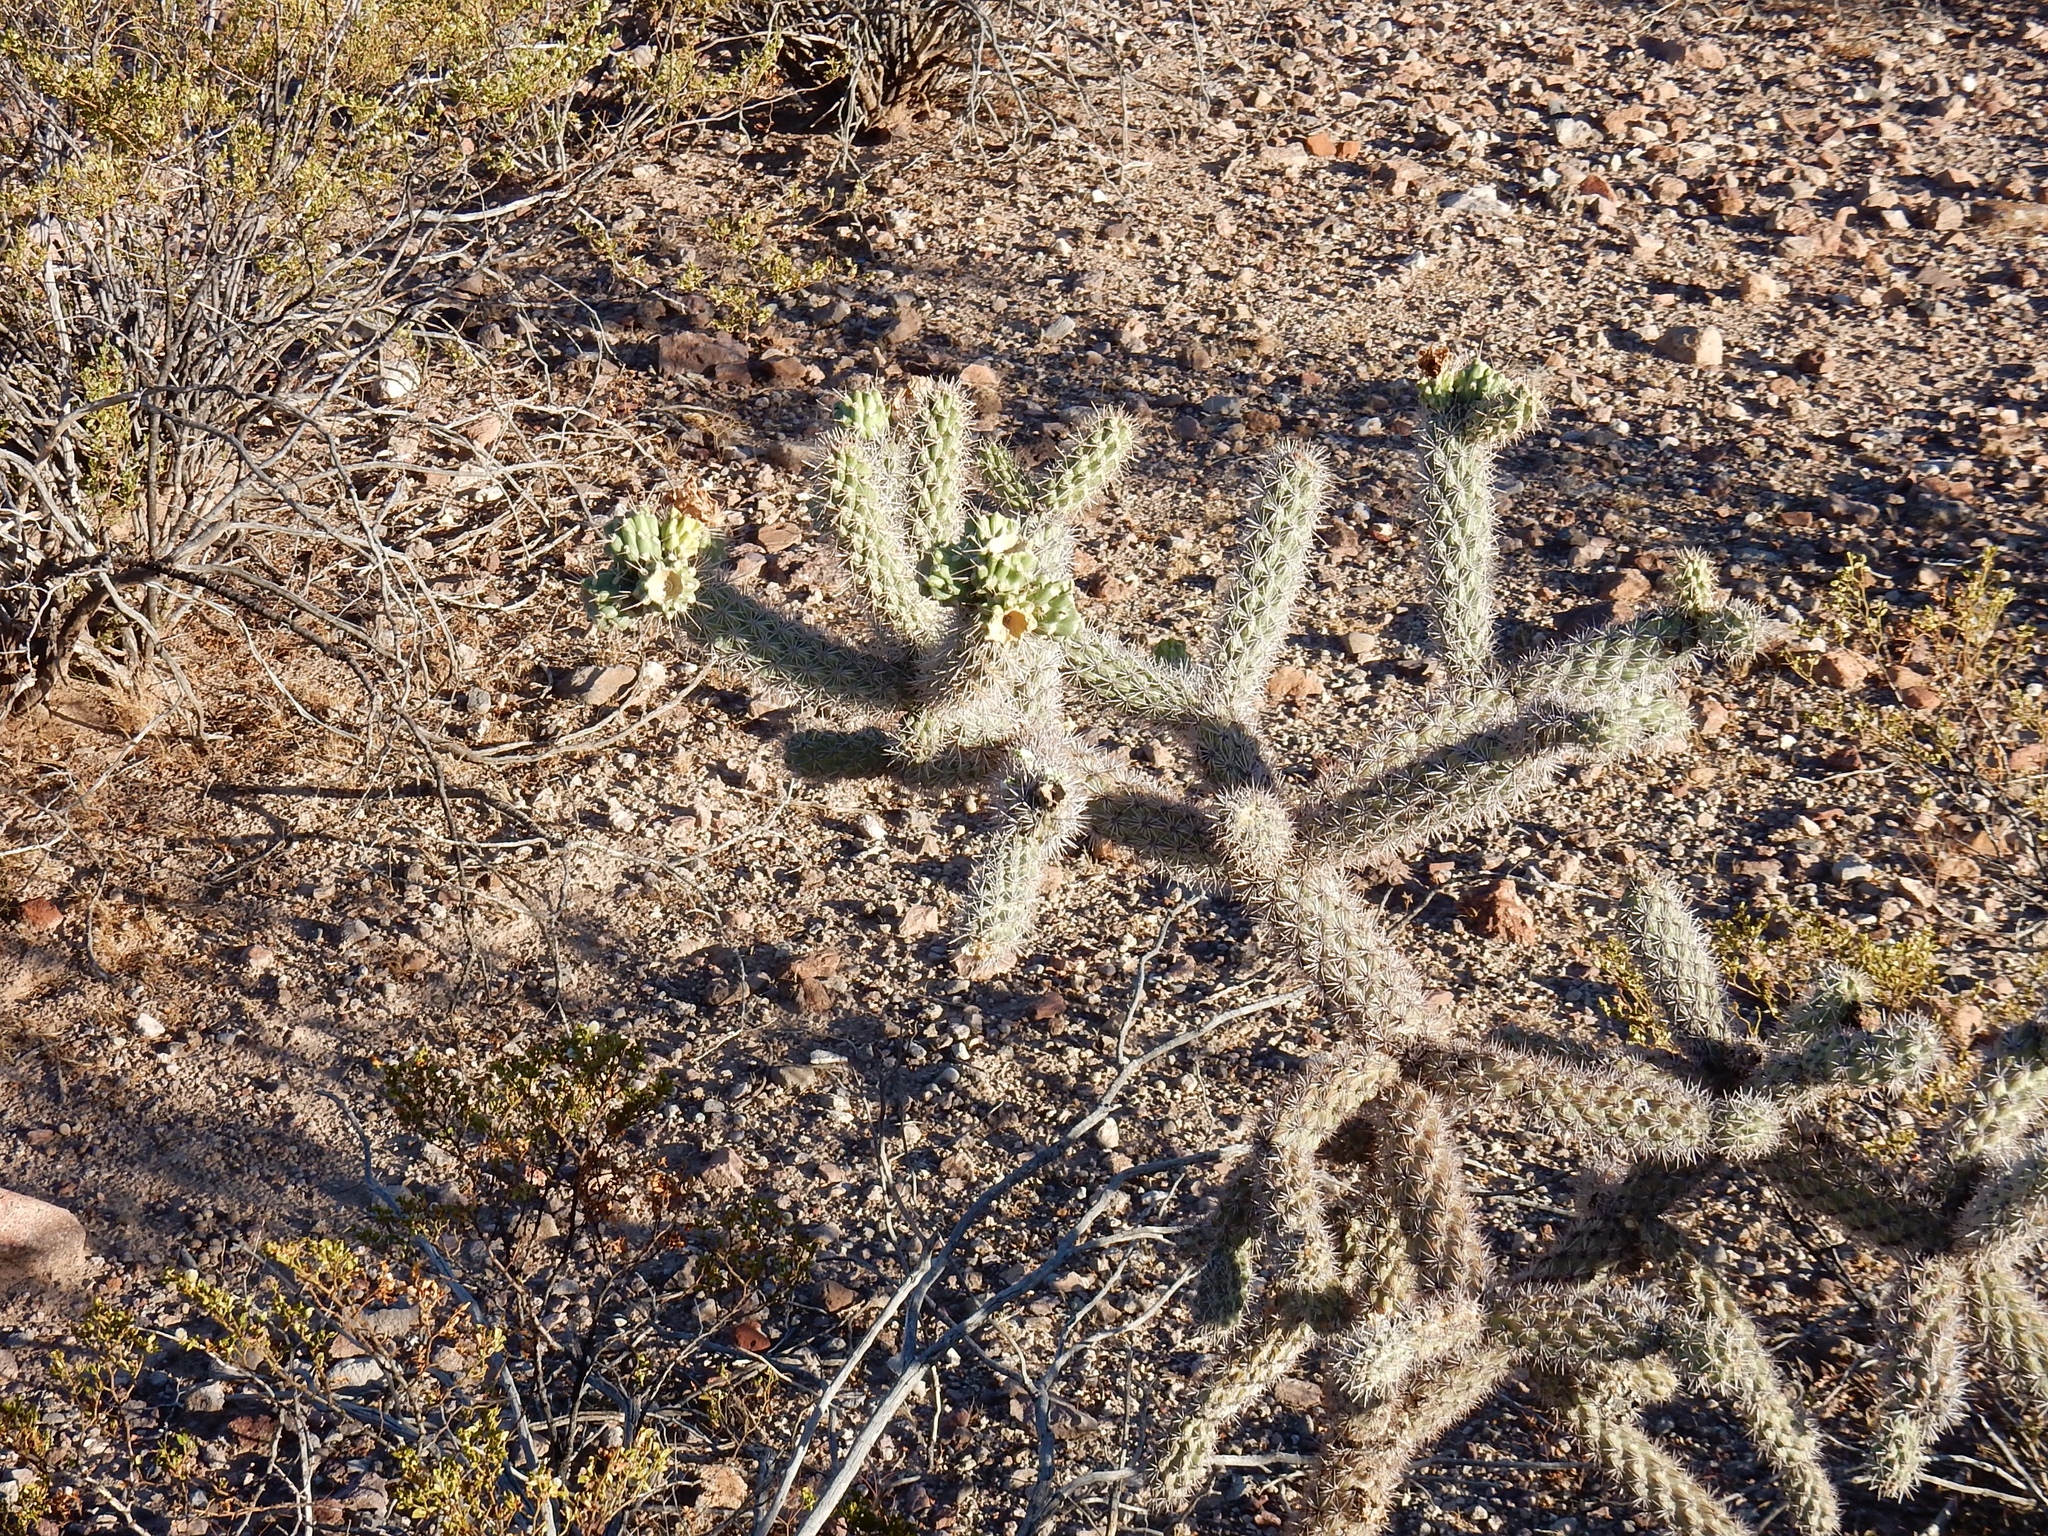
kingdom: Plantae
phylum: Tracheophyta
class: Magnoliopsida
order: Caryophyllales
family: Cactaceae
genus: Cylindropuntia
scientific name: Cylindropuntia imbricata
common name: Candelabrum cactus
